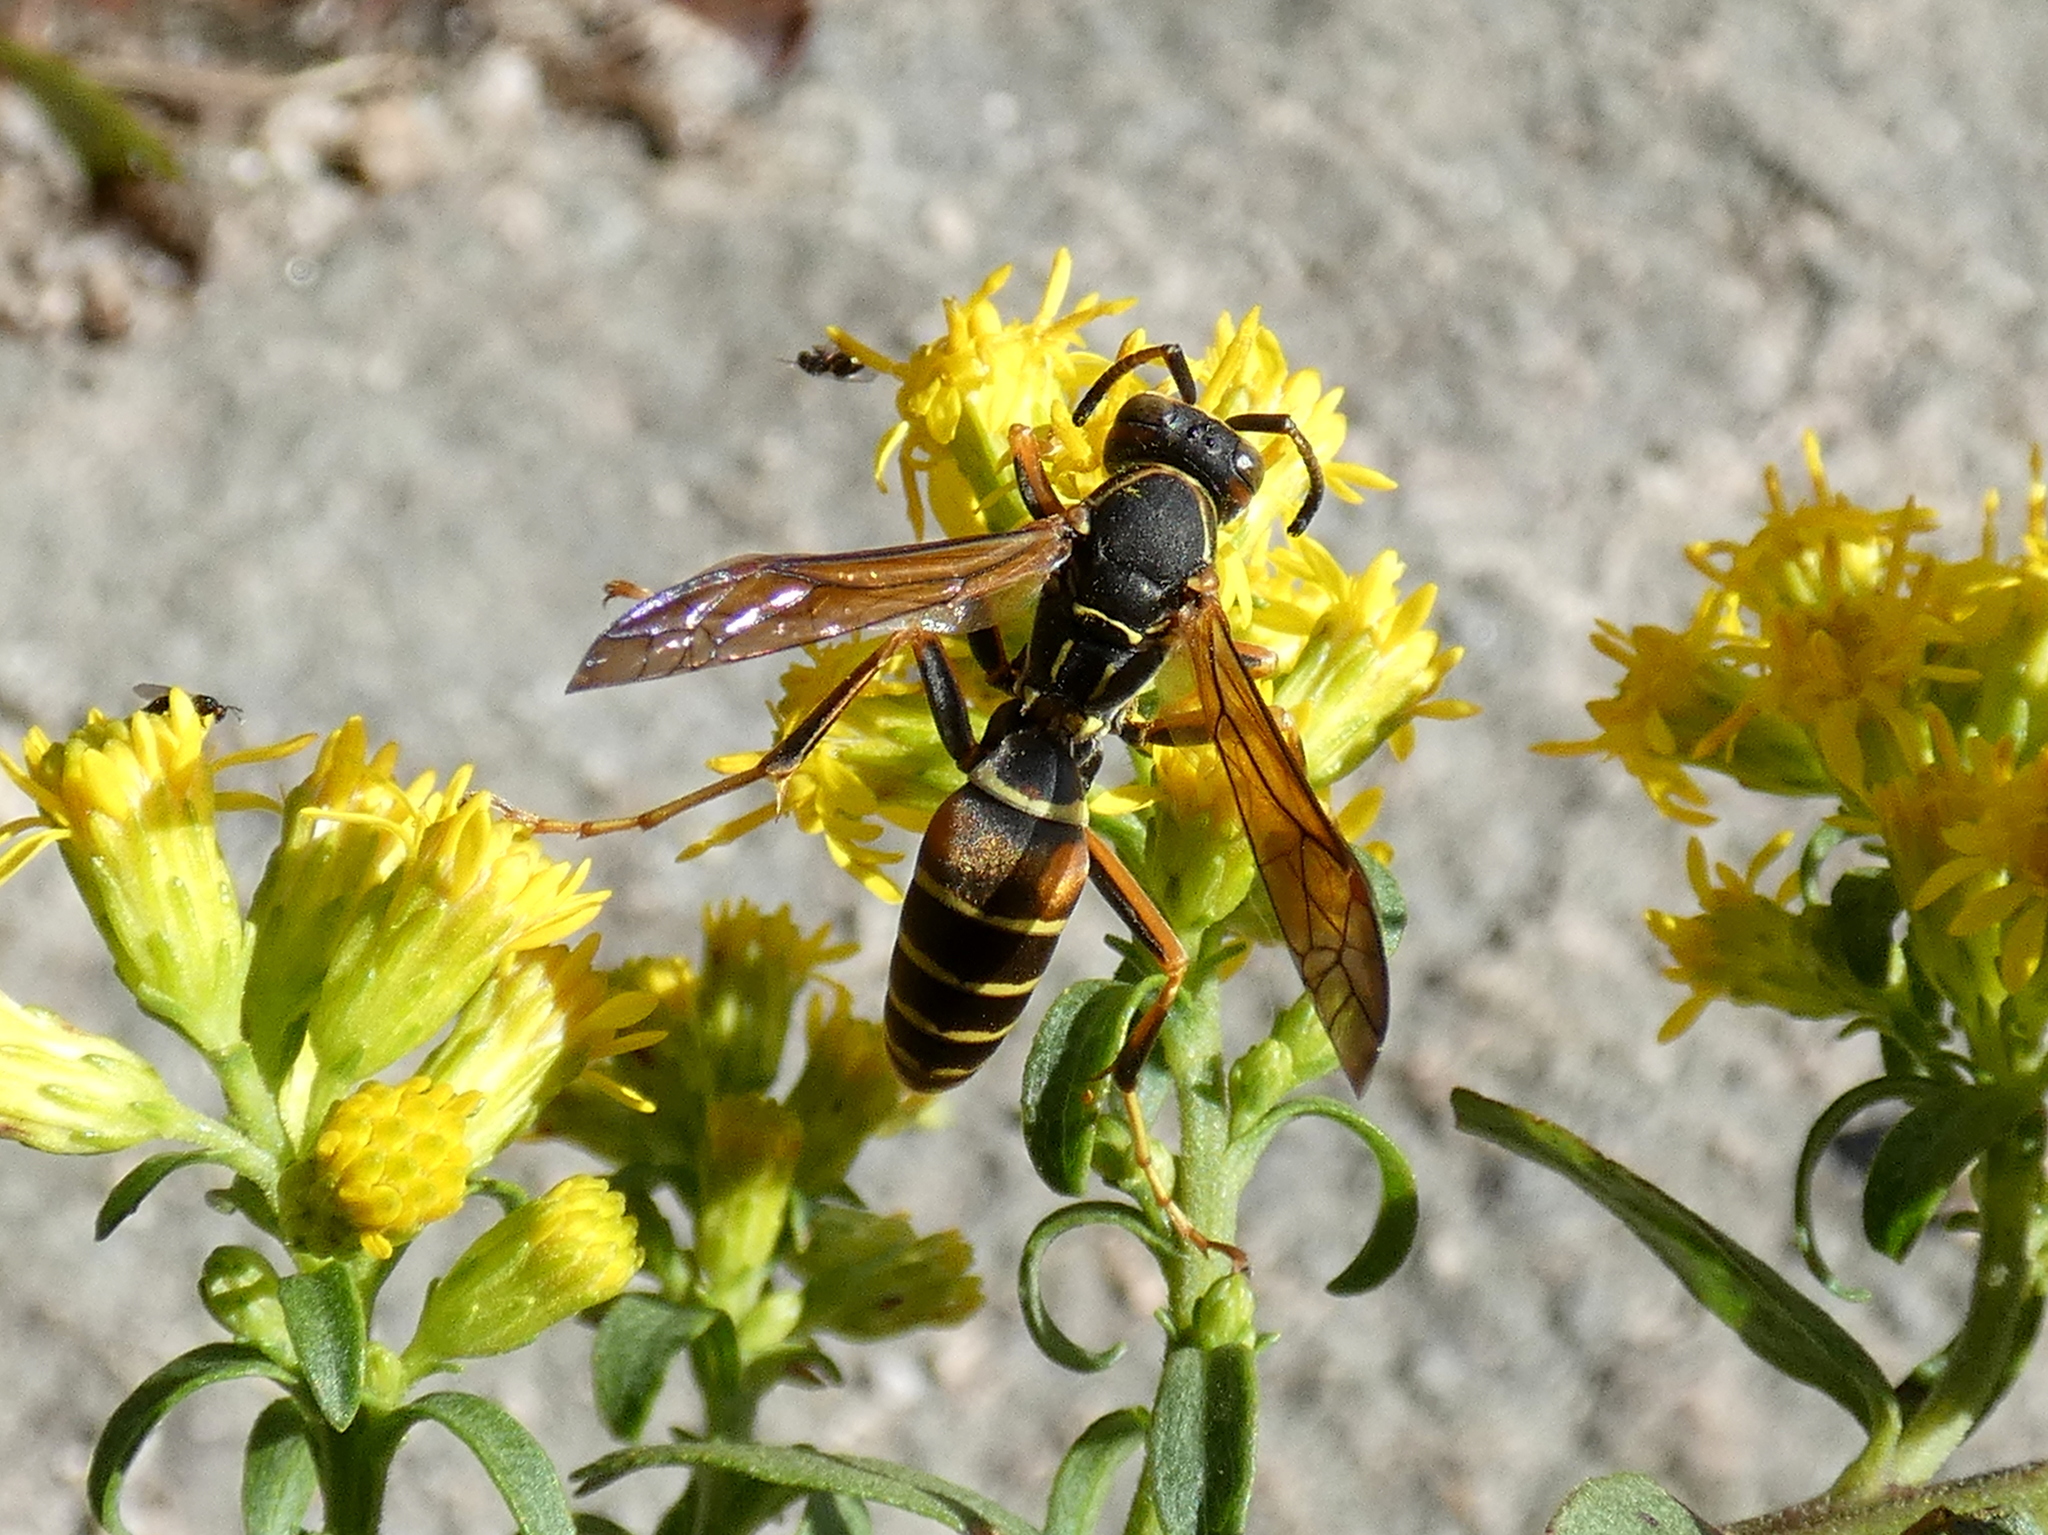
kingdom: Animalia
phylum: Arthropoda
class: Insecta
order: Hymenoptera
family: Eumenidae
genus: Polistes
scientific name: Polistes fuscatus
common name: Dark paper wasp
